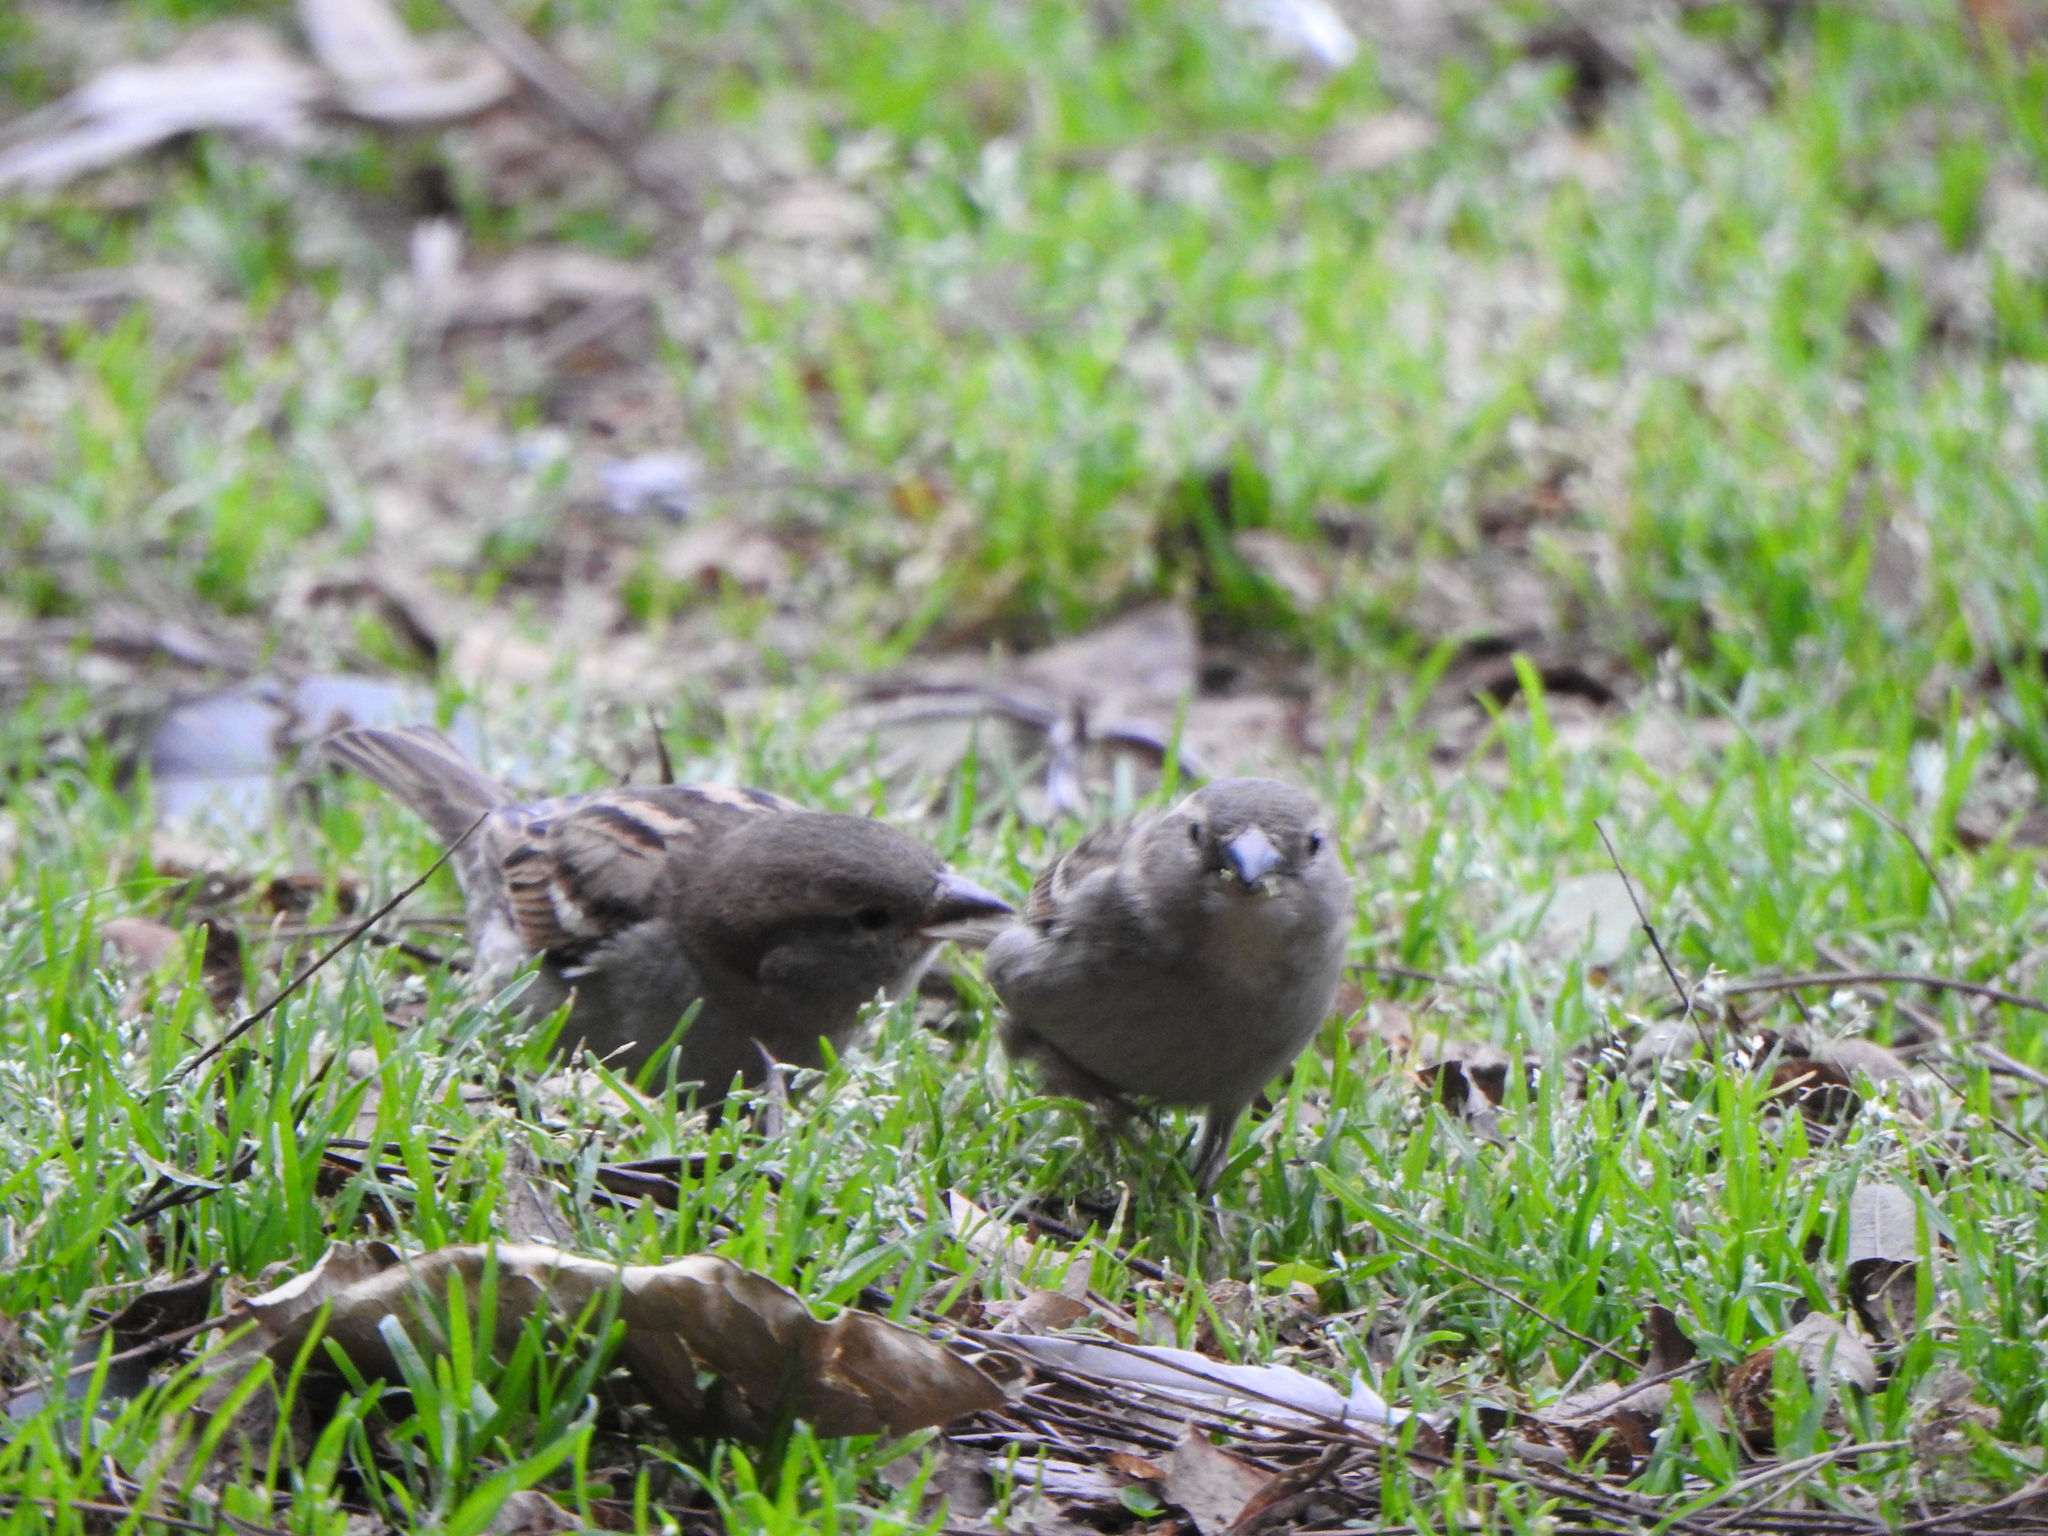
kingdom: Animalia
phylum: Chordata
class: Aves
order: Passeriformes
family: Passeridae
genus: Passer
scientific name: Passer domesticus
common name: House sparrow
